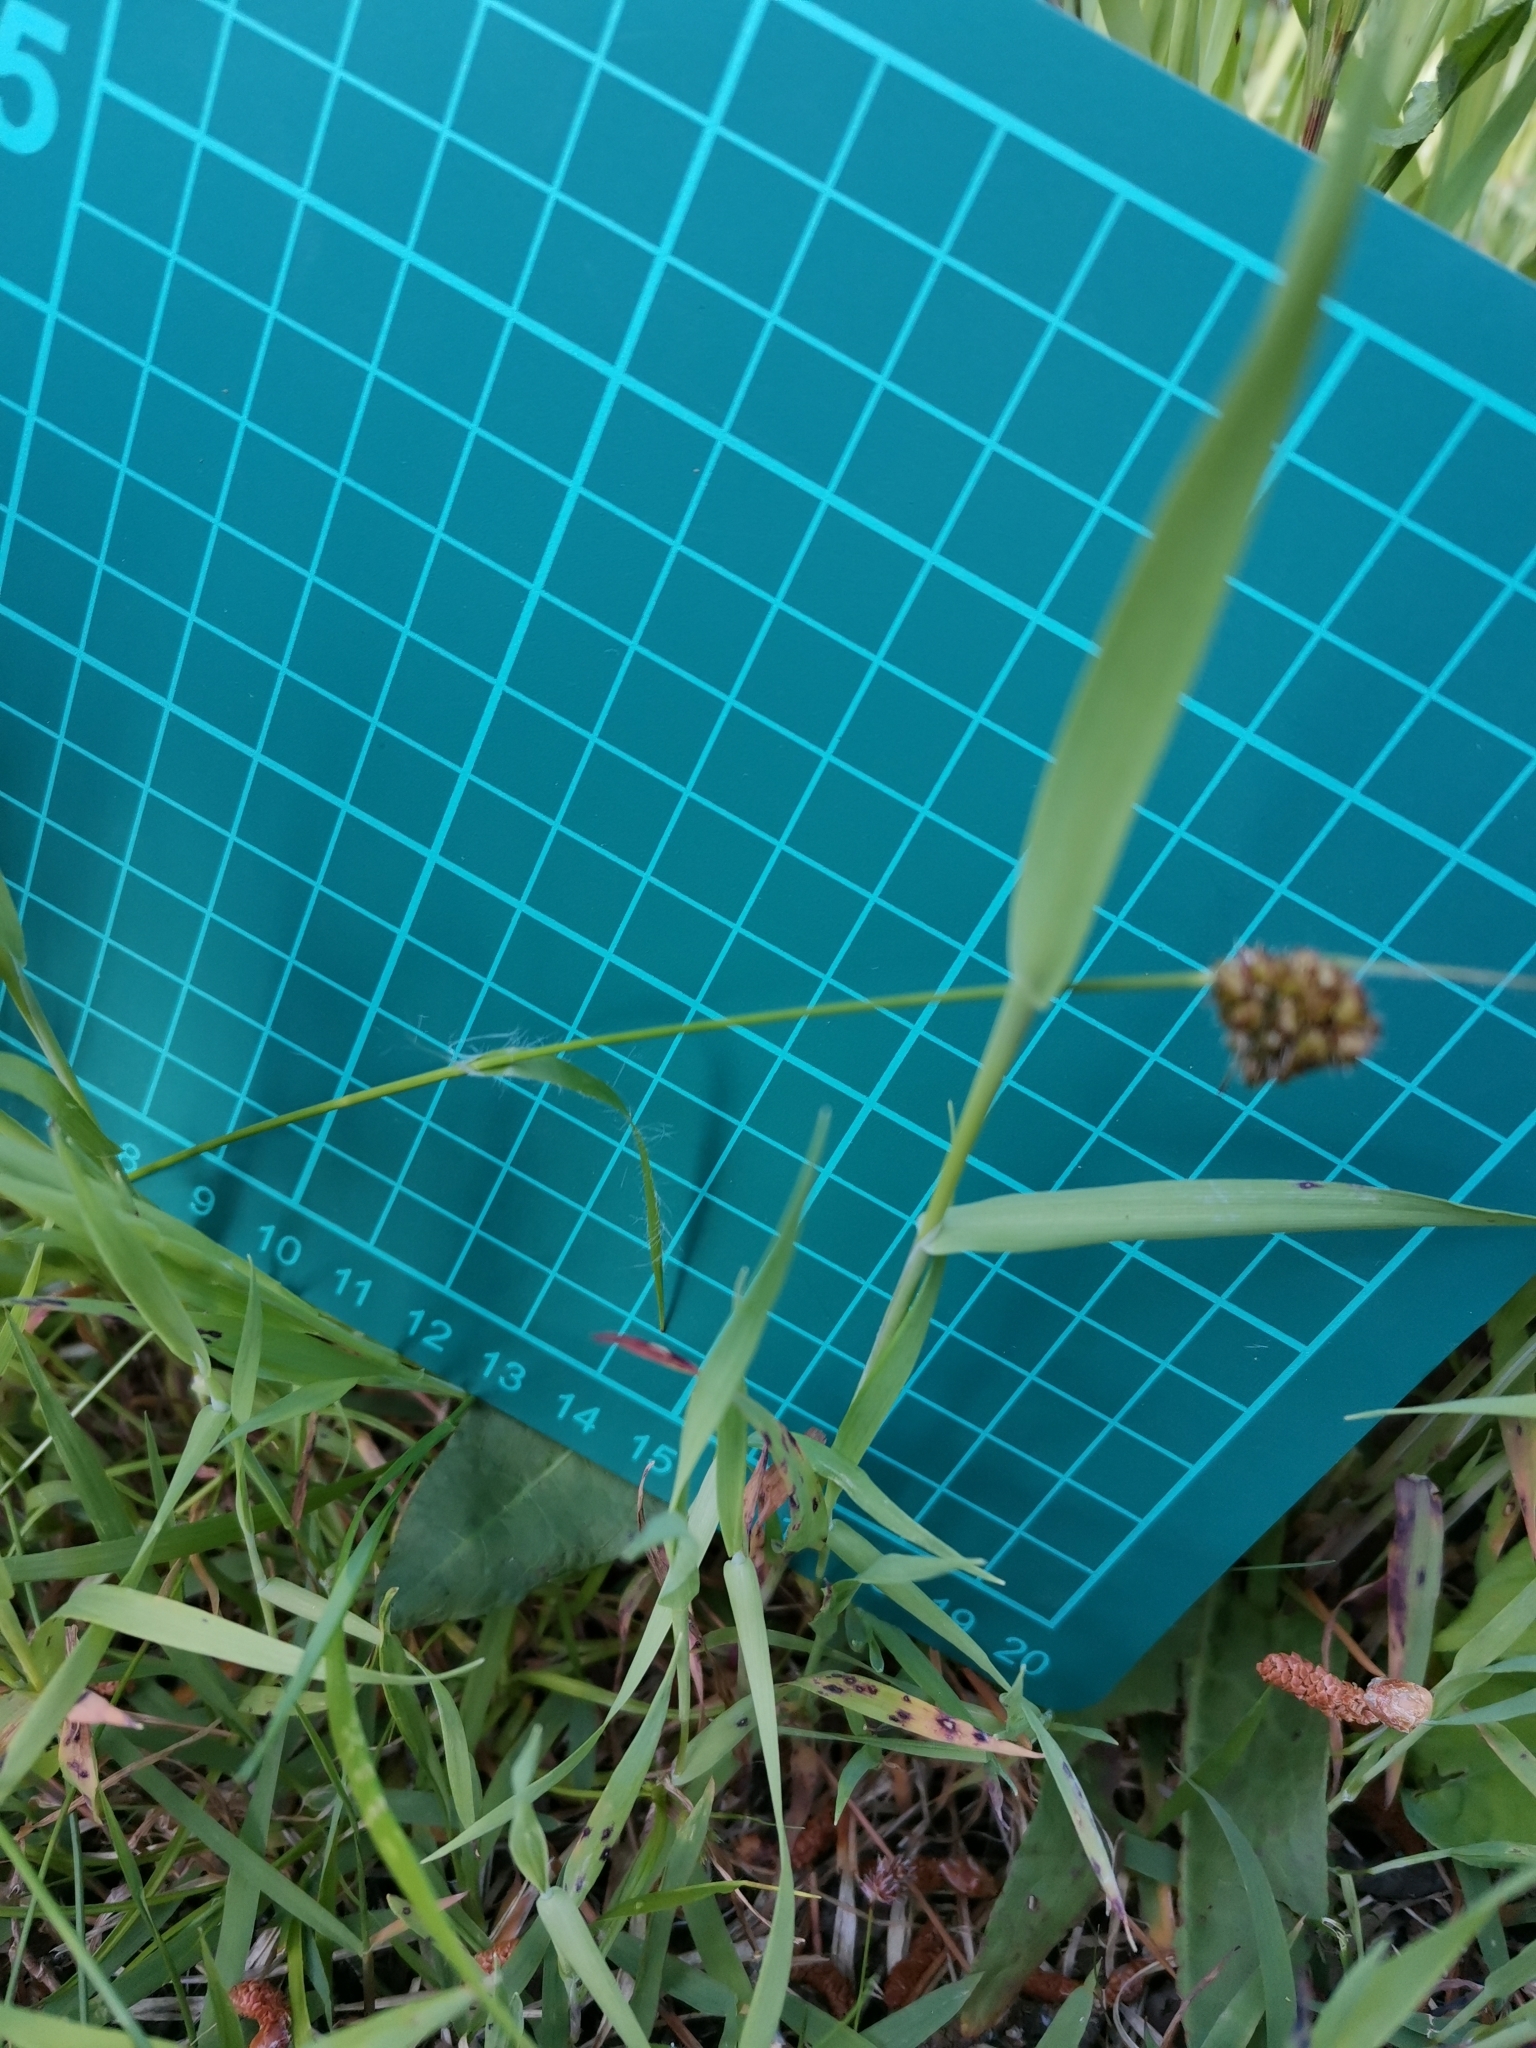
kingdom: Plantae
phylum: Tracheophyta
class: Liliopsida
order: Poales
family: Juncaceae
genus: Luzula
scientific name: Luzula capitata
